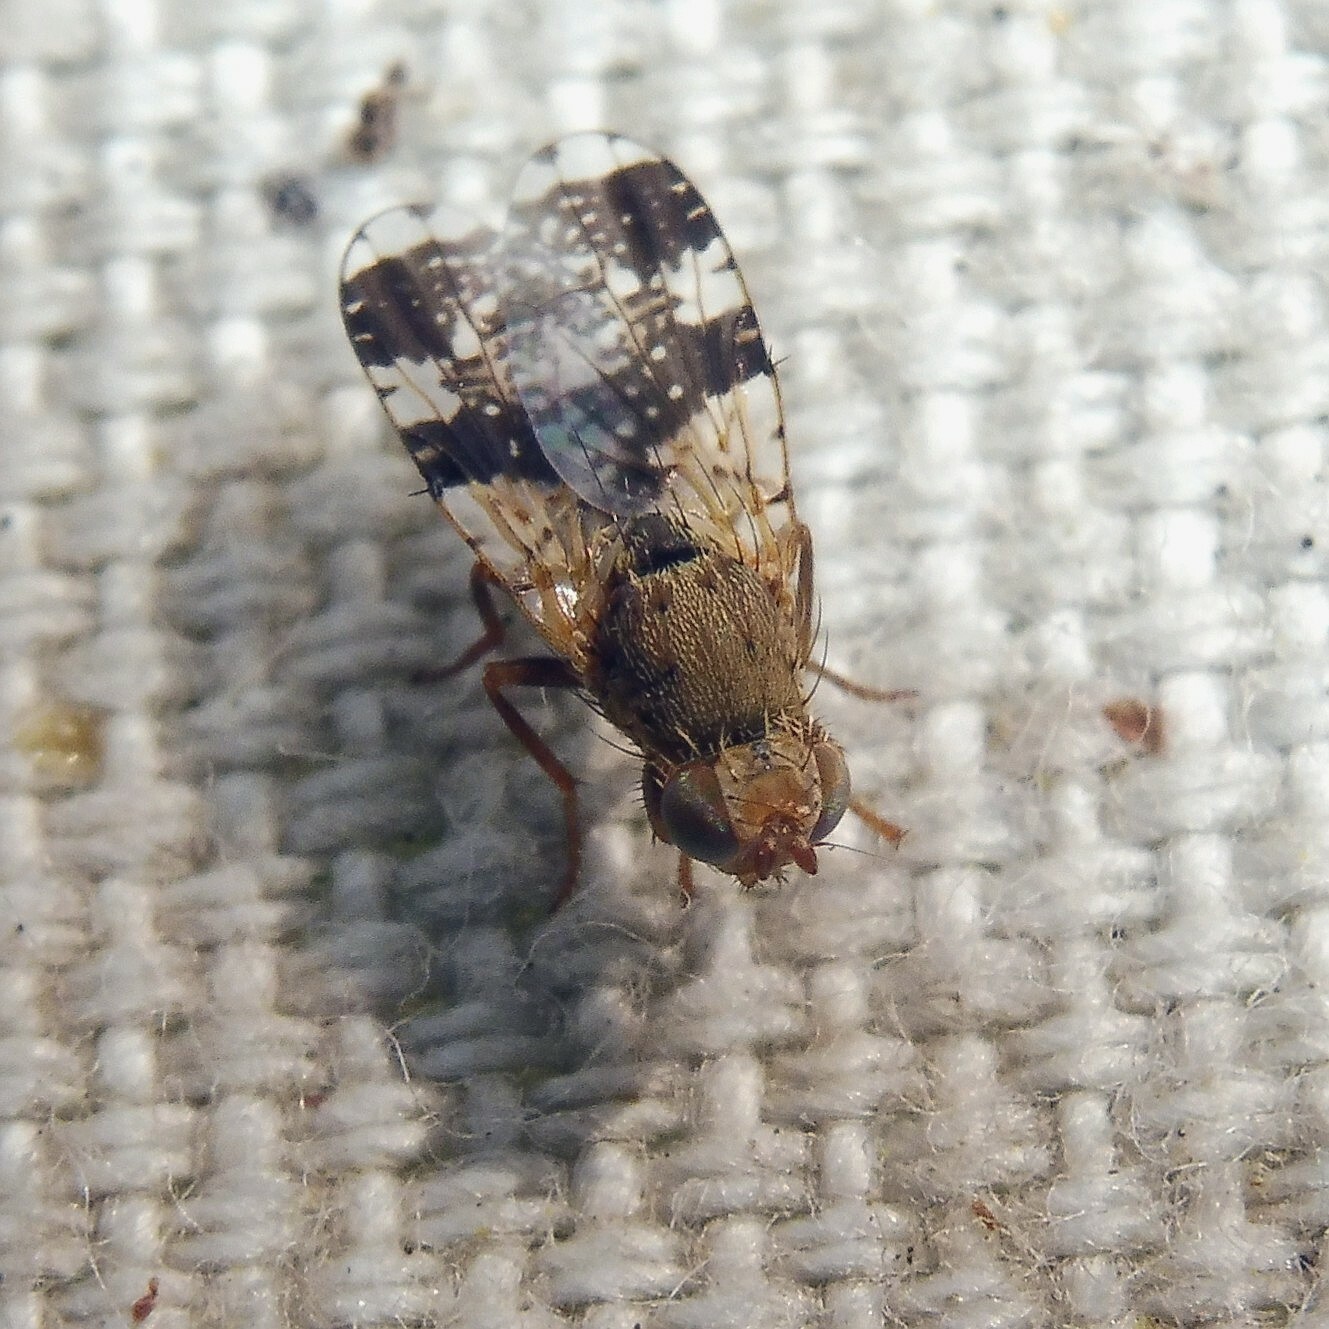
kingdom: Animalia
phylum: Arthropoda
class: Insecta
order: Diptera
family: Tephritidae
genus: Tephritis
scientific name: Tephritis formosa
